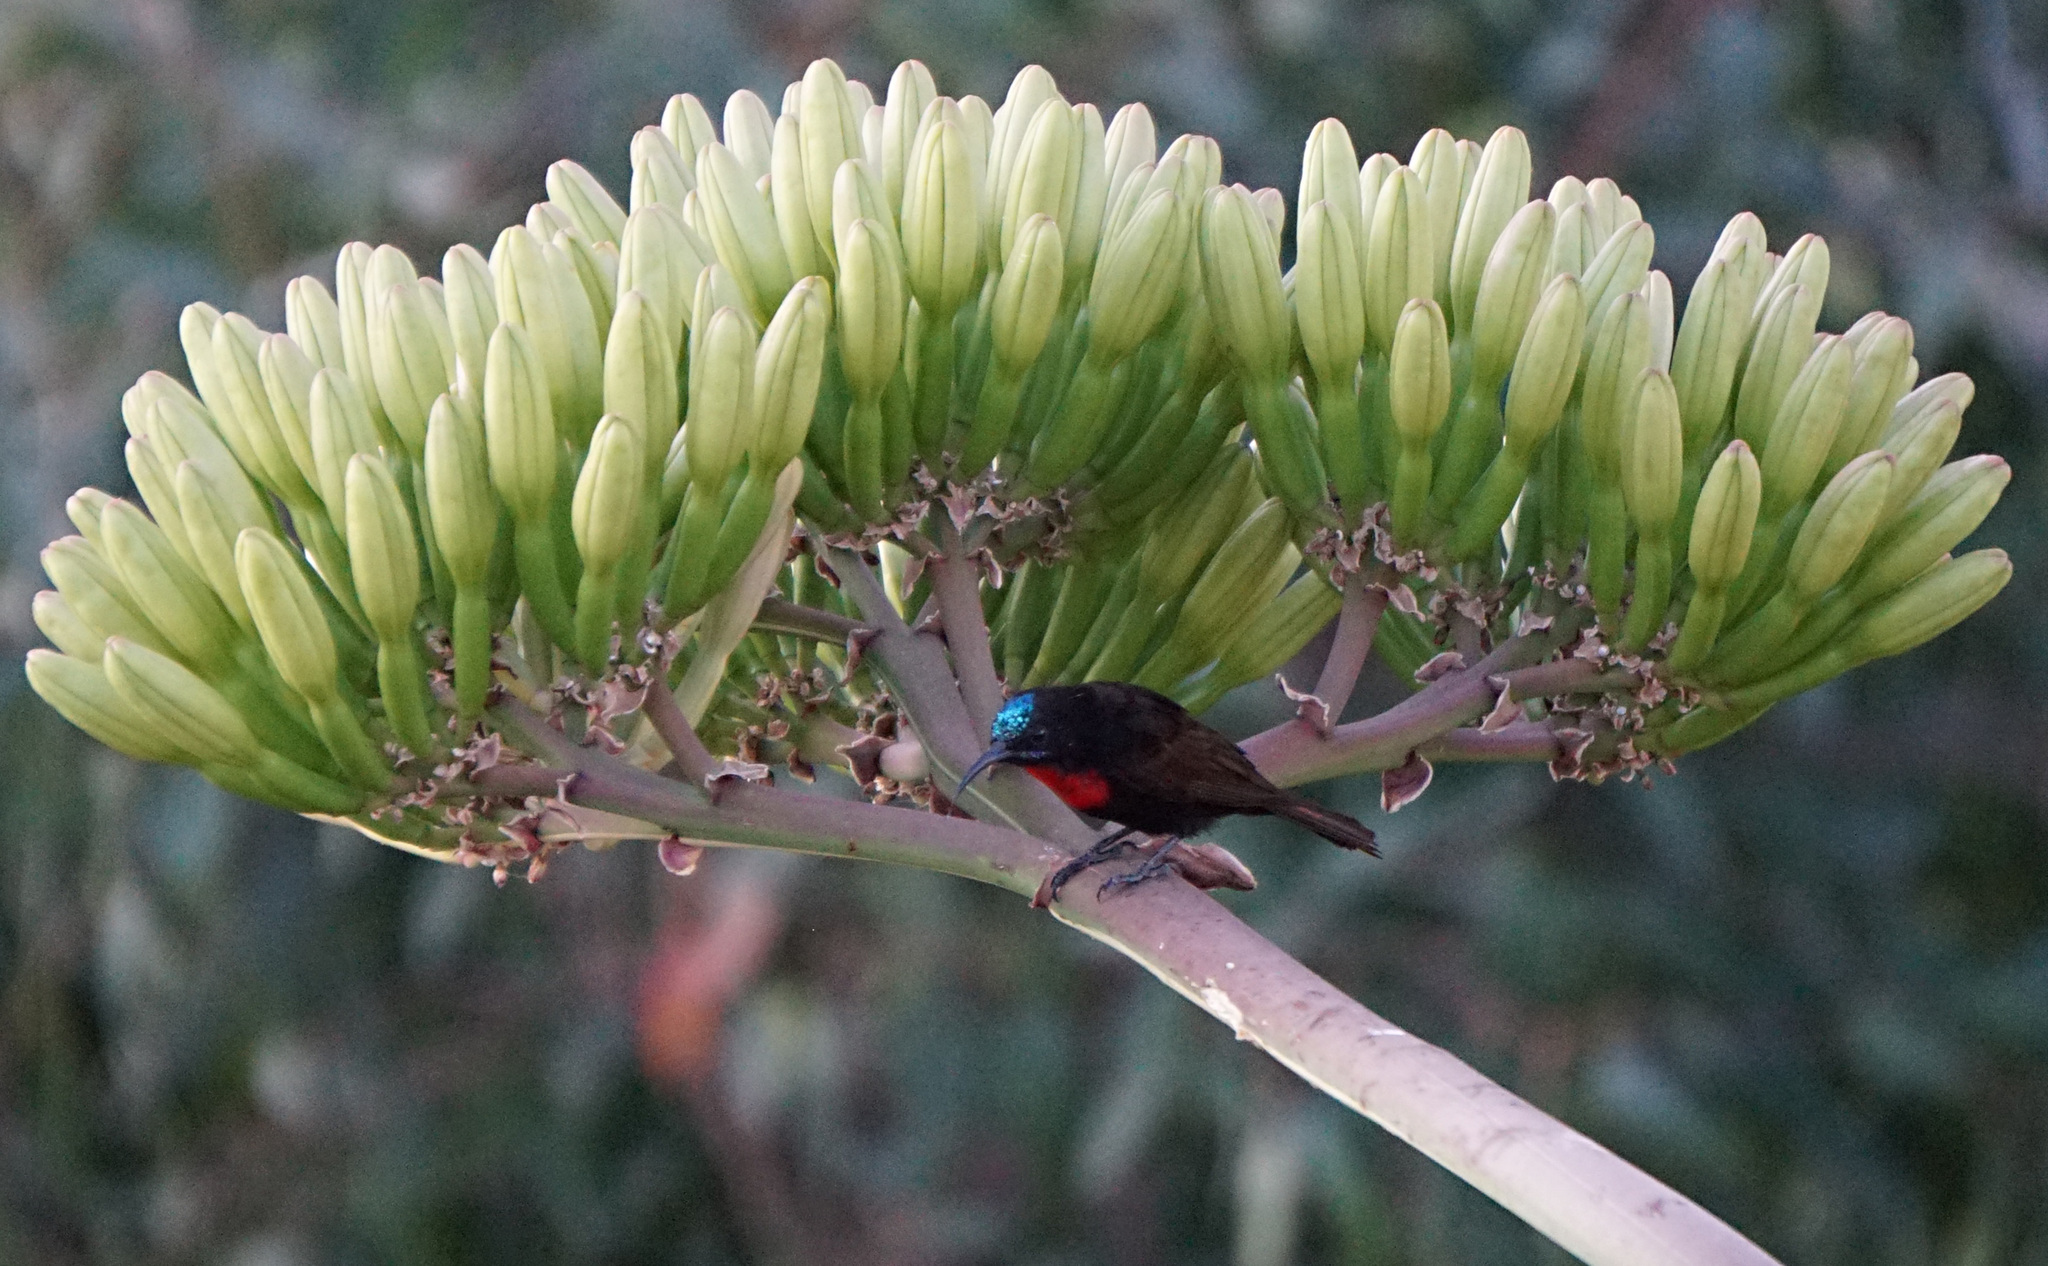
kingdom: Animalia
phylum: Chordata
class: Aves
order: Passeriformes
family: Nectariniidae
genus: Chalcomitra
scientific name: Chalcomitra senegalensis
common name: Scarlet-chested sunbird
